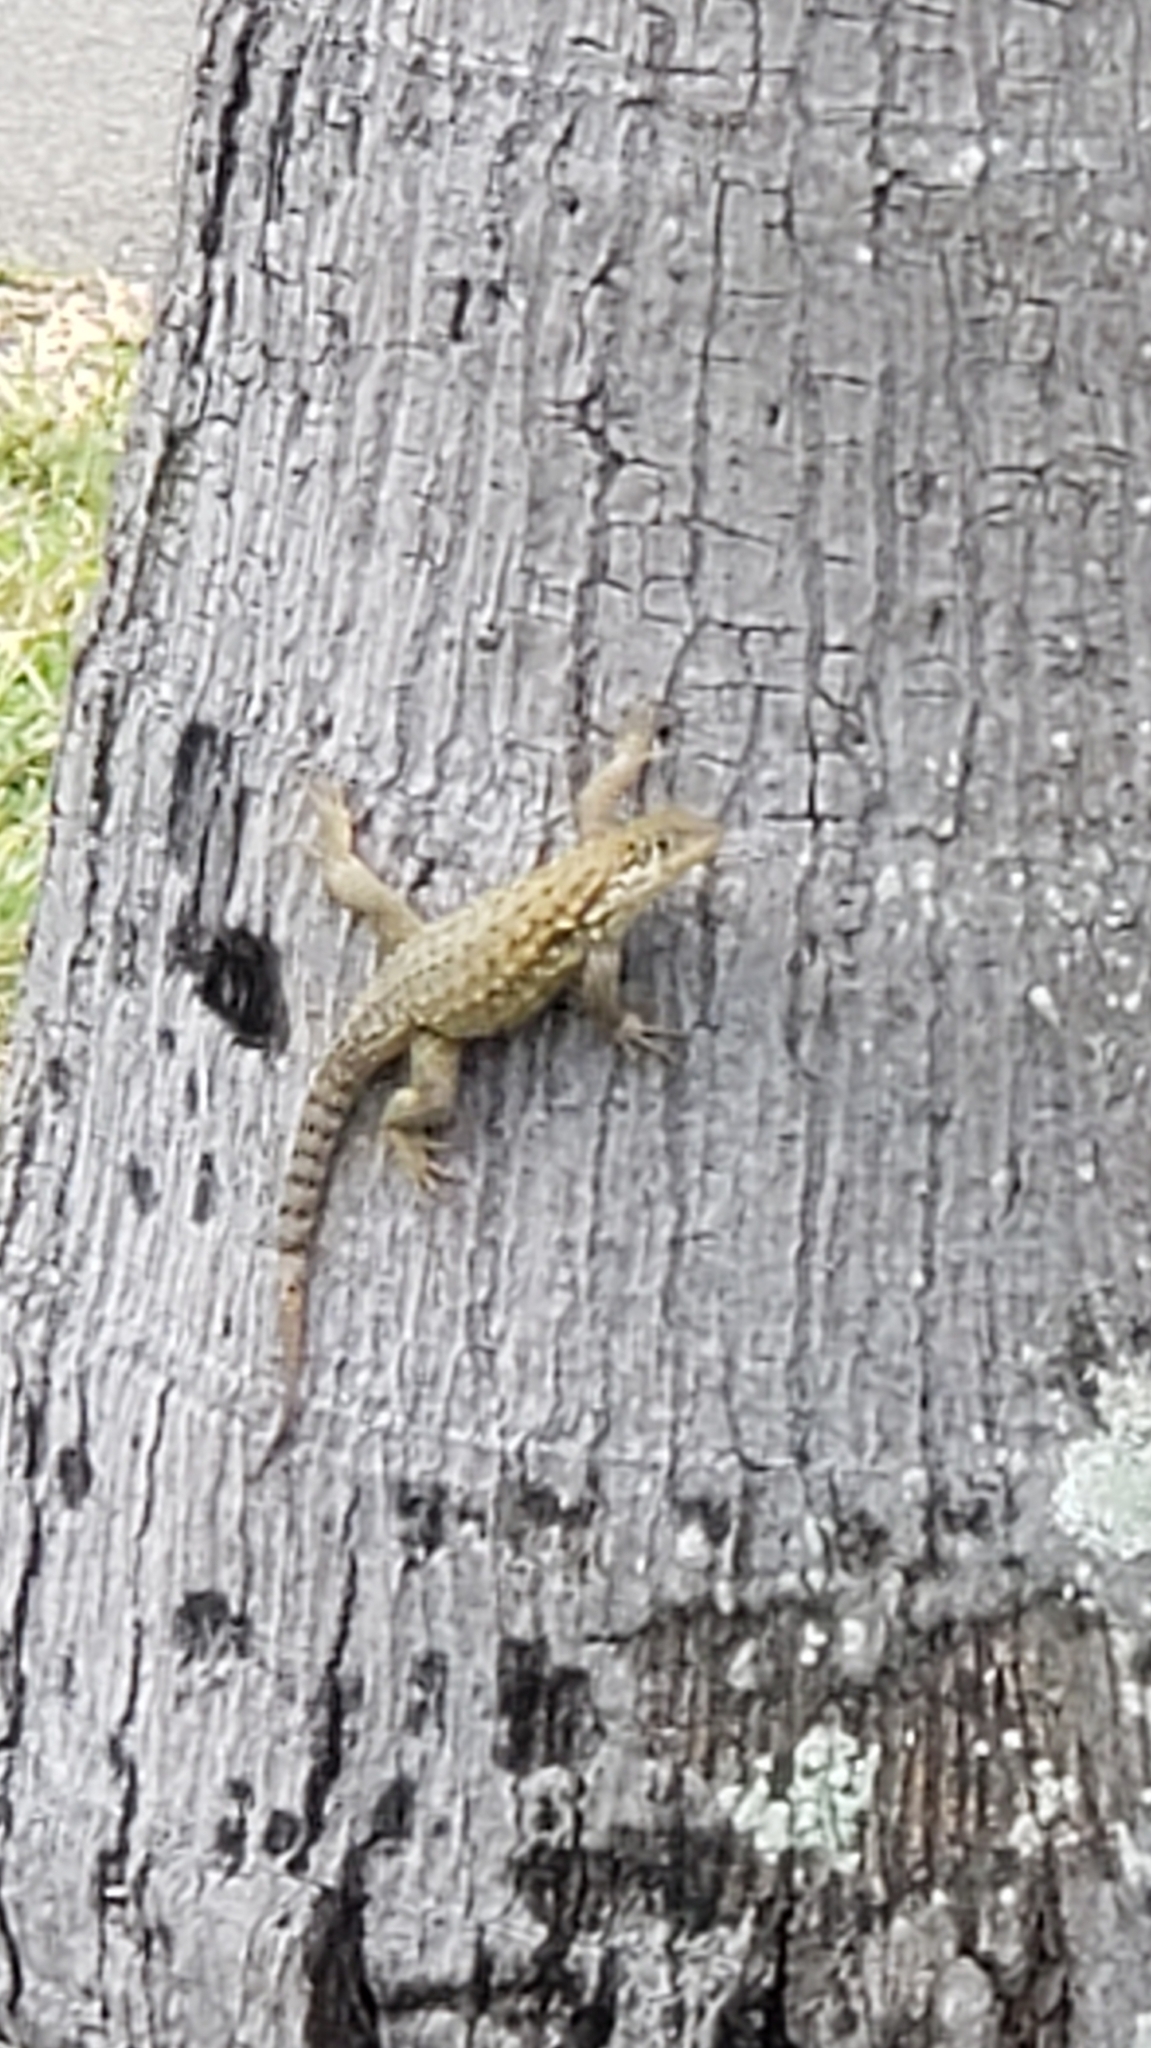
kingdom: Animalia
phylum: Chordata
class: Squamata
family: Leiocephalidae
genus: Leiocephalus
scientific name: Leiocephalus carinatus
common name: Northern curly-tailed lizard
